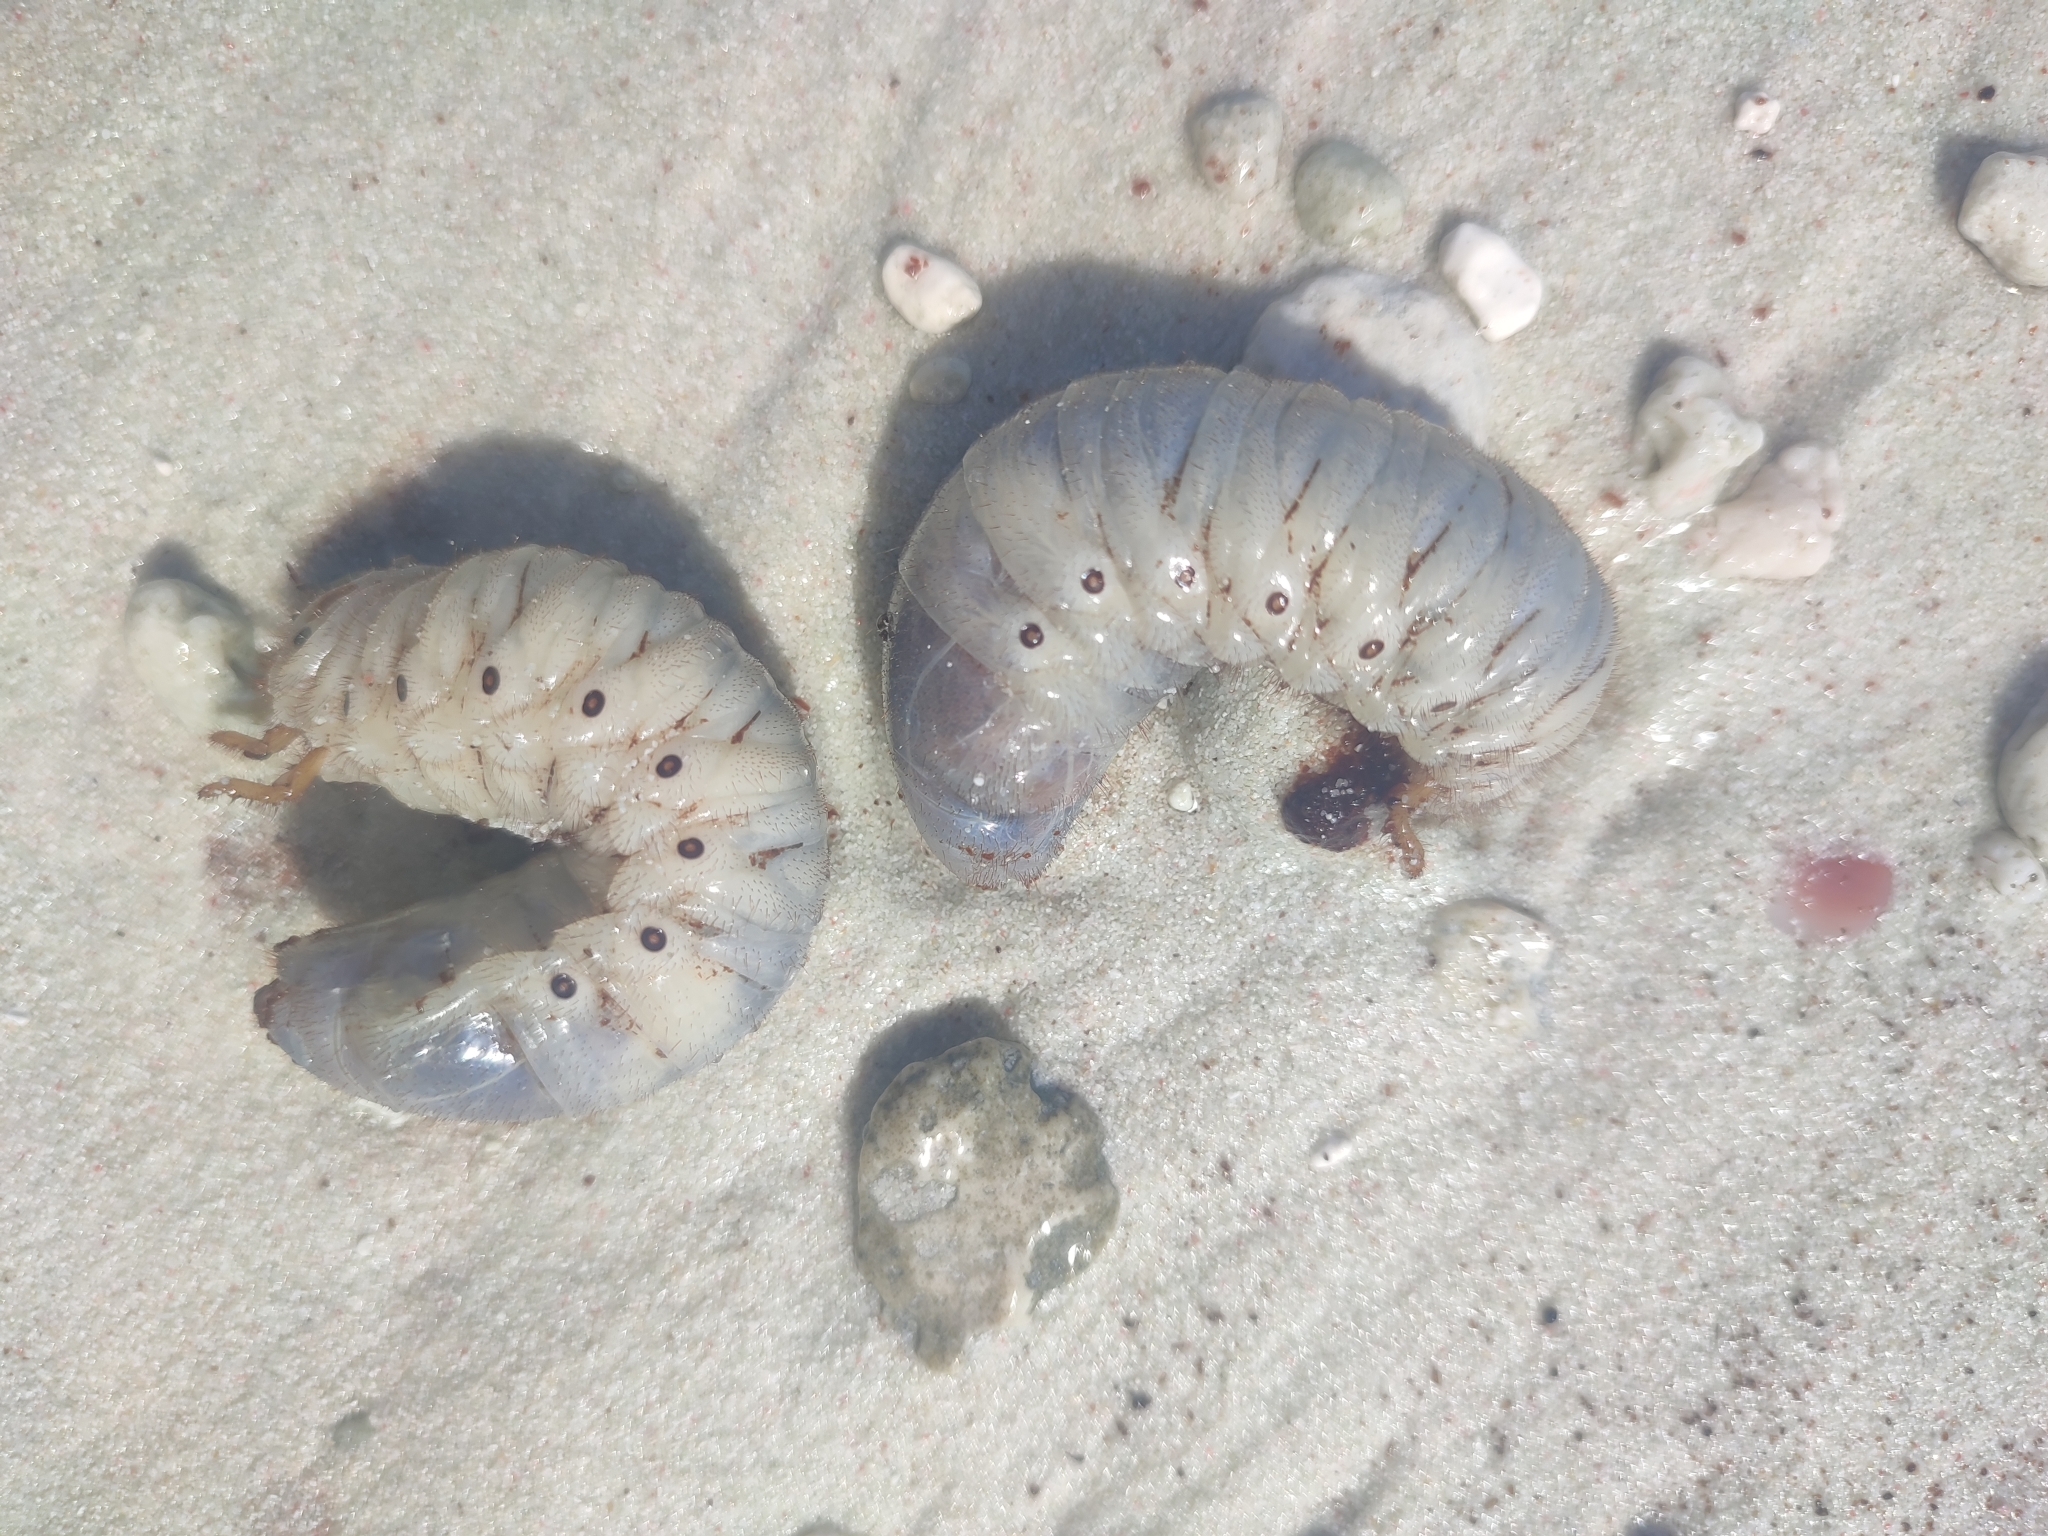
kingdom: Animalia
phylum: Arthropoda
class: Insecta
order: Coleoptera
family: Scarabaeidae
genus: Oryctes
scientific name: Oryctes rhinoceros
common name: Coconut rhinoceros beetle
